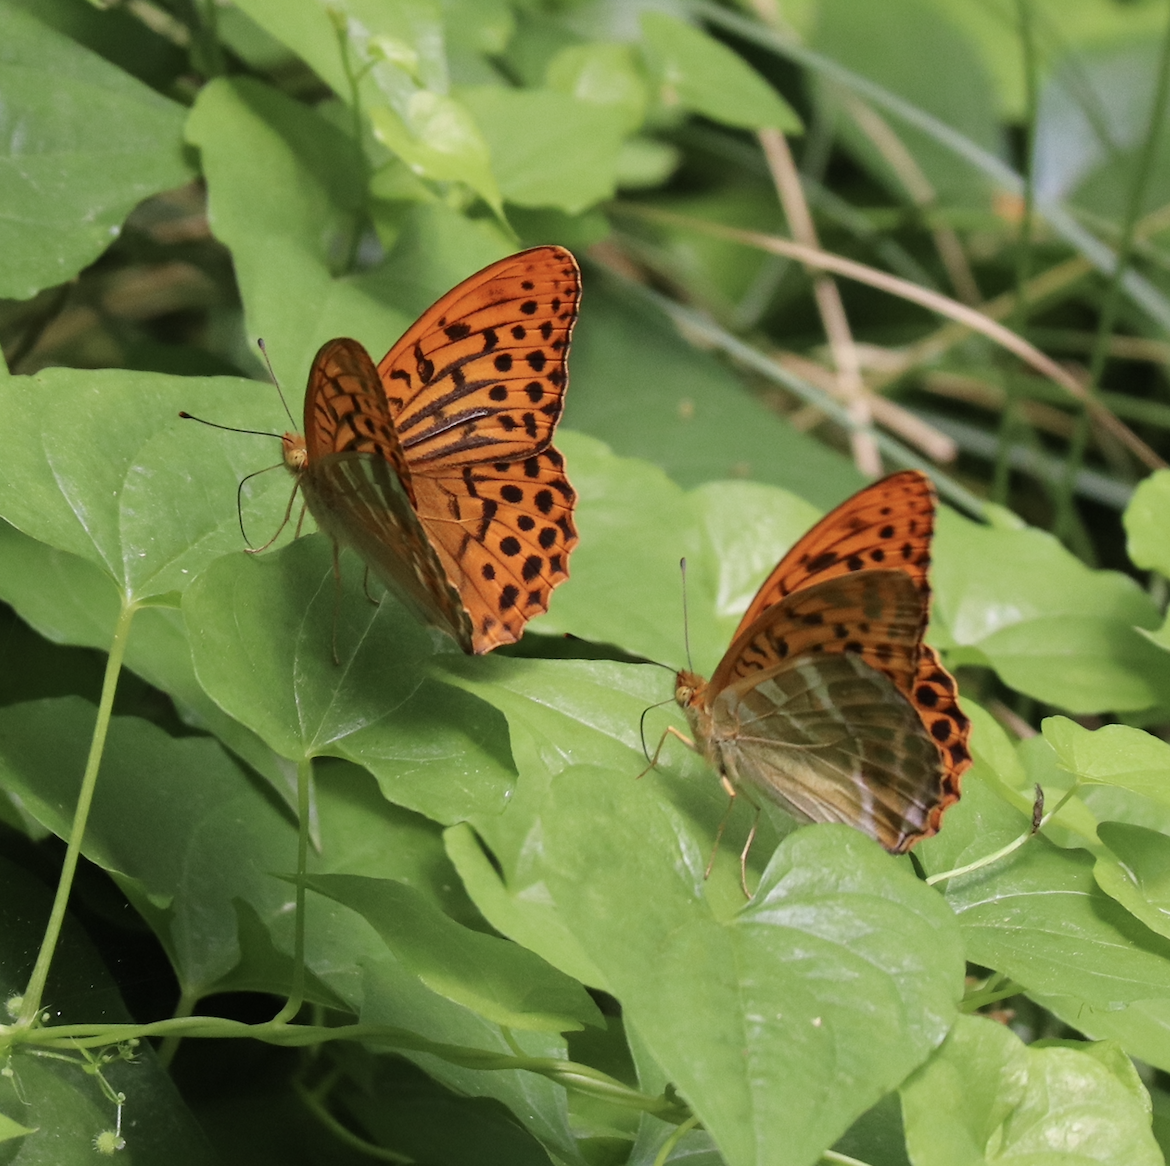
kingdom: Animalia
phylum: Arthropoda
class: Insecta
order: Lepidoptera
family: Nymphalidae
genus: Argynnis
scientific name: Argynnis paphia
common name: Silver-washed fritillary
